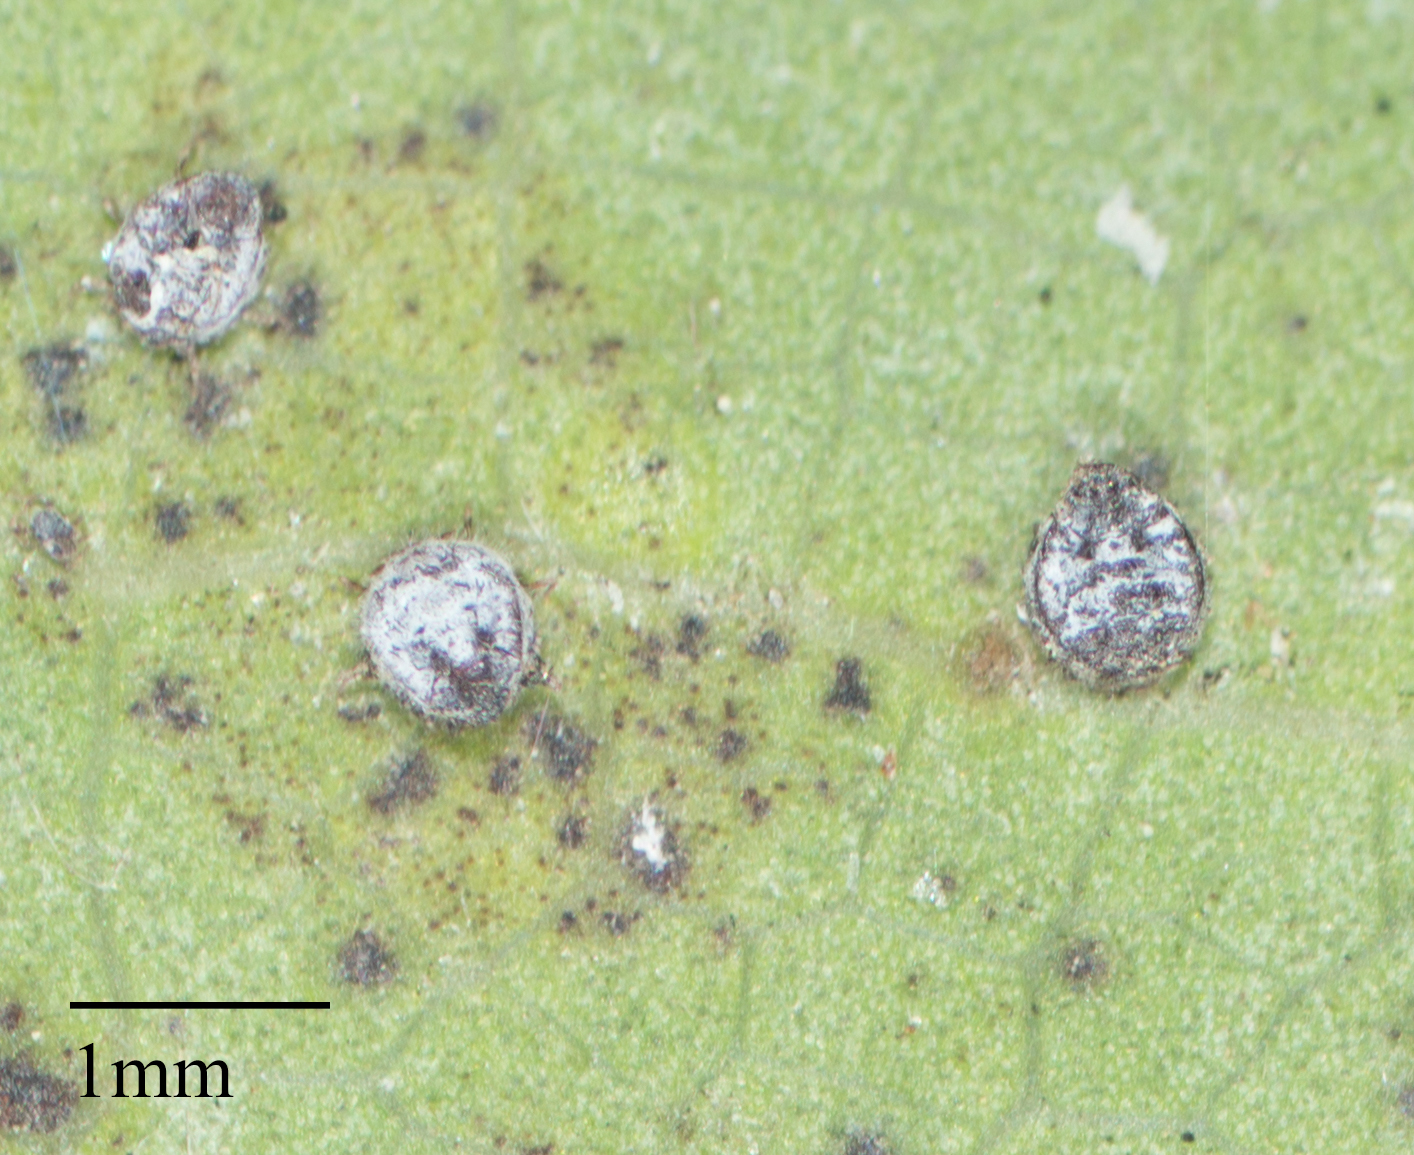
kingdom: Animalia
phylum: Arthropoda
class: Insecta
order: Hemiptera
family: Aphididae
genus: Euthoracaphis
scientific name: Euthoracaphis umbellulariae
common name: Aphid
